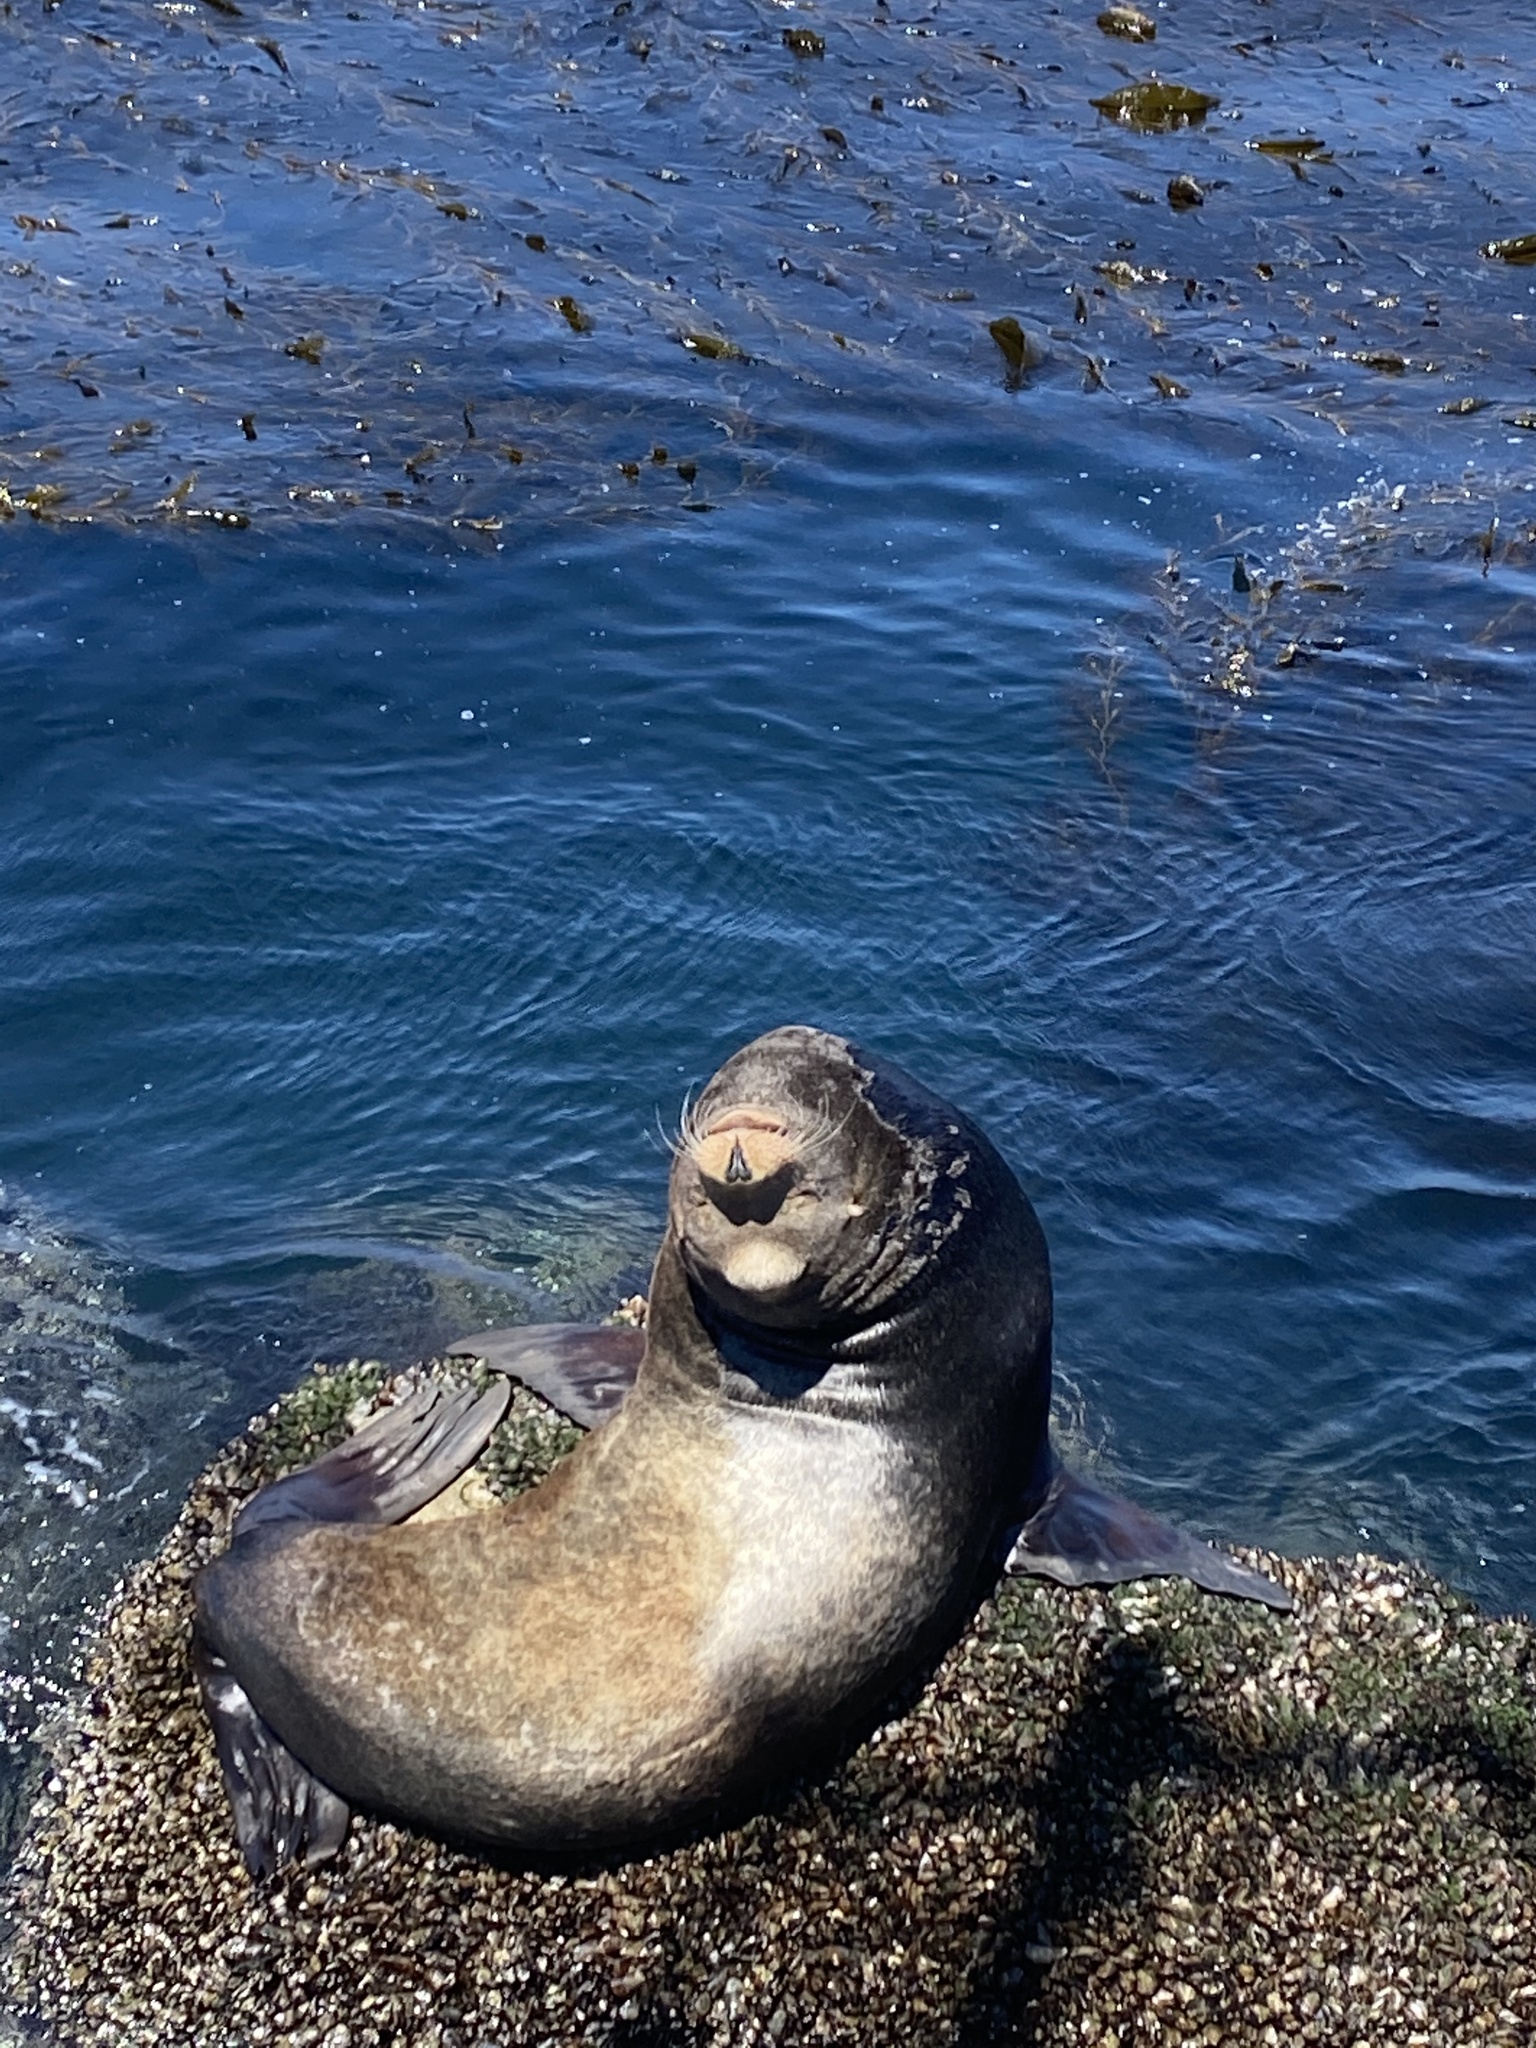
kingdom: Animalia
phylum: Chordata
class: Mammalia
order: Carnivora
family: Otariidae
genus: Zalophus
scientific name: Zalophus californianus
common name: California sea lion
